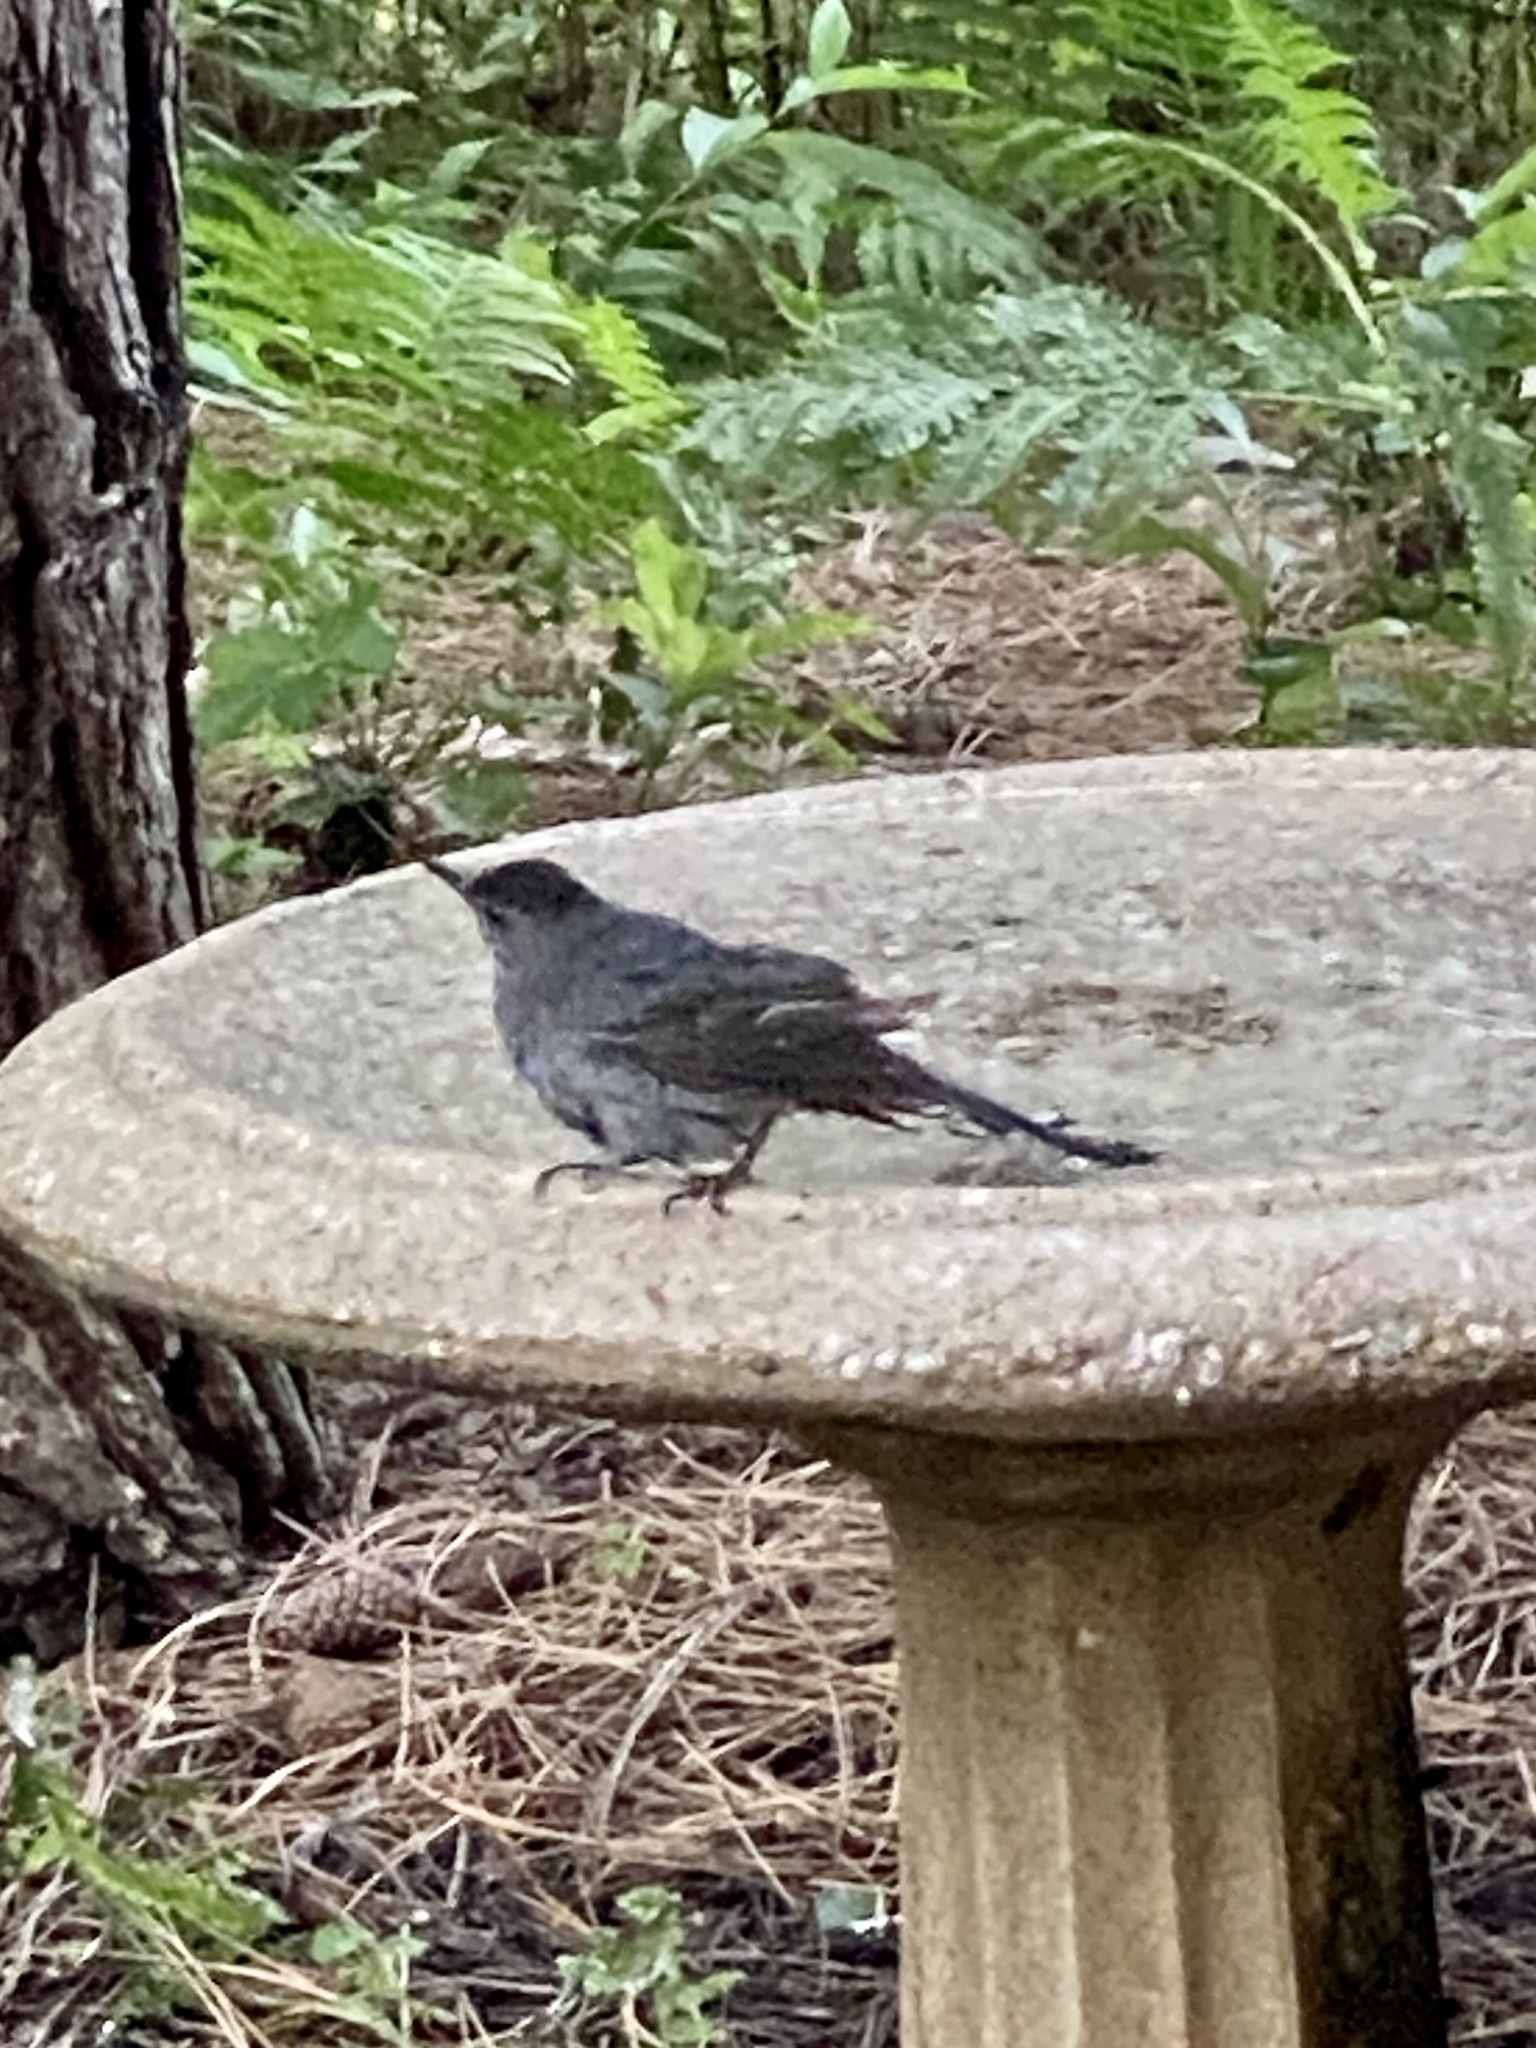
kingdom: Animalia
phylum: Chordata
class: Aves
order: Passeriformes
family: Mimidae
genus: Dumetella
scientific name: Dumetella carolinensis
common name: Gray catbird
